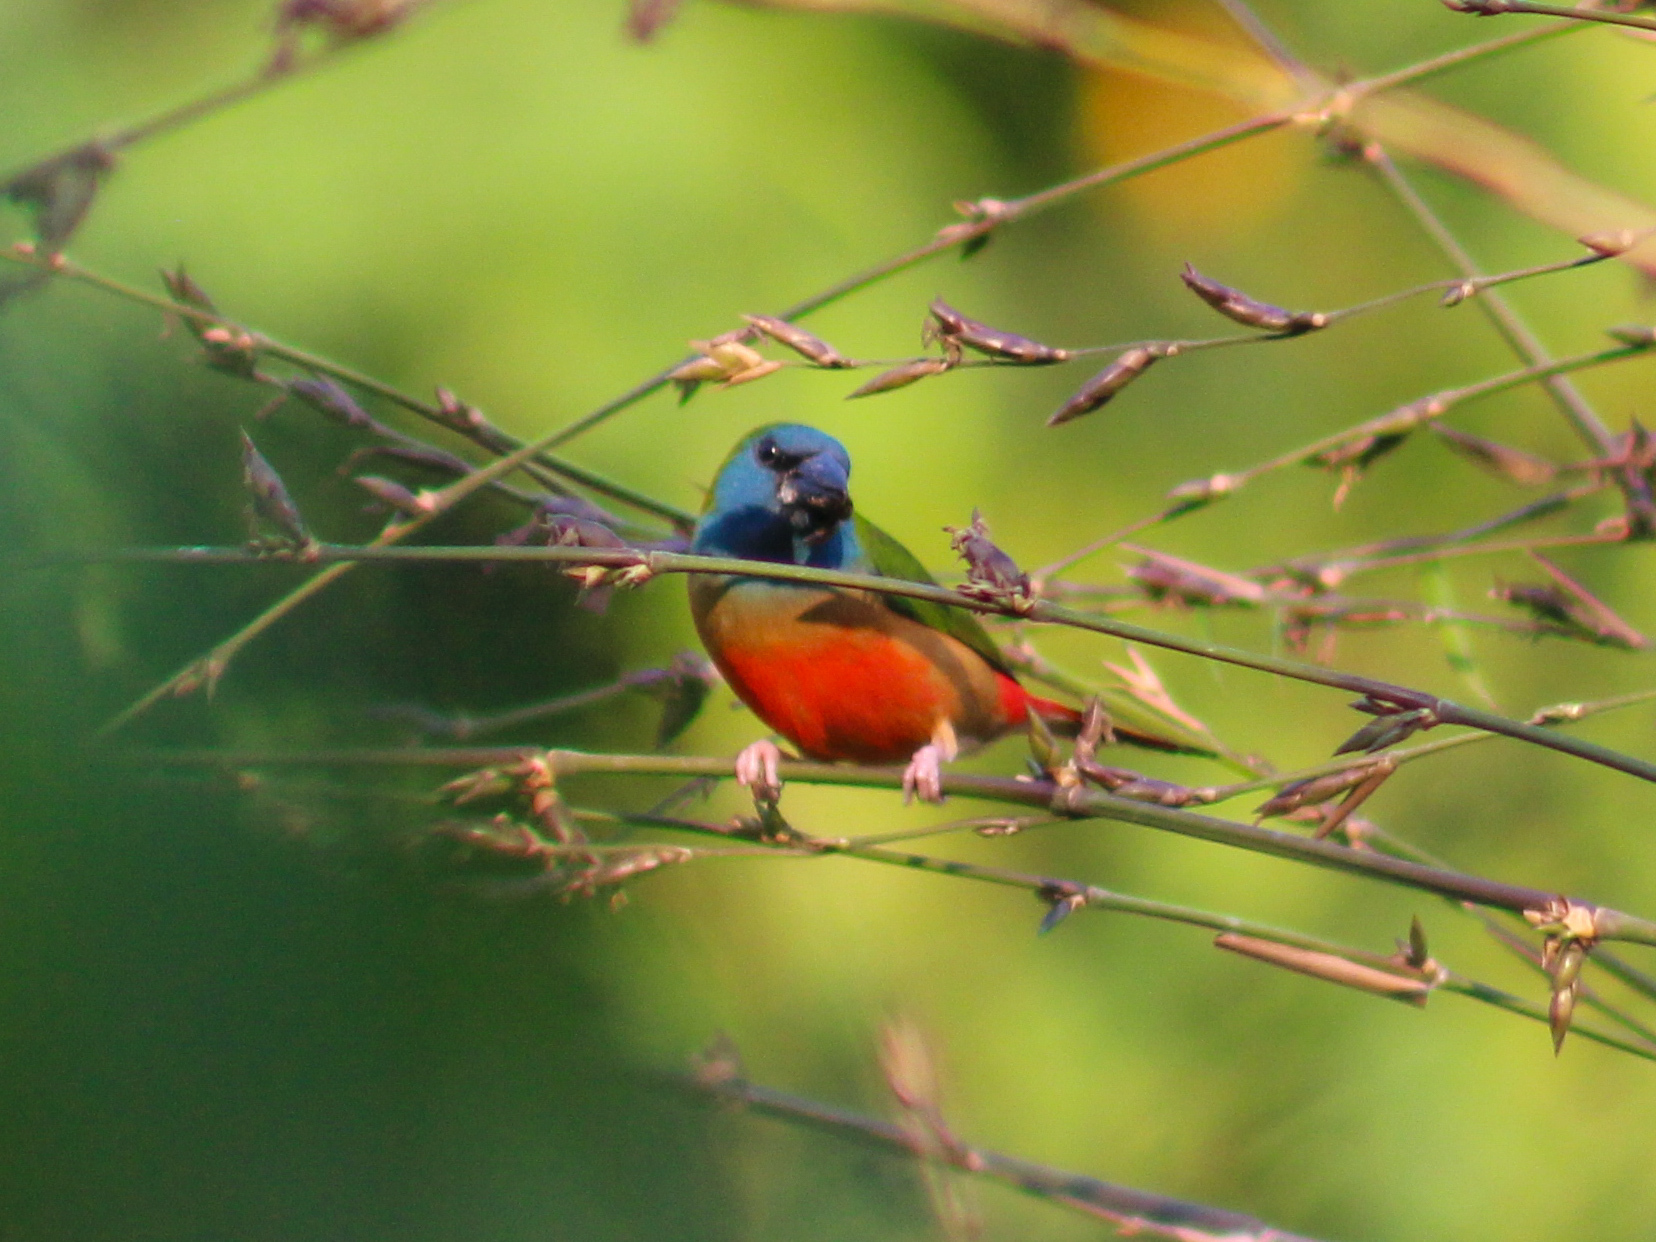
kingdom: Animalia
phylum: Chordata
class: Aves
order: Passeriformes
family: Estrildidae
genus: Erythrura
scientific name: Erythrura prasina
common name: Pin-tailed parrotfinch
